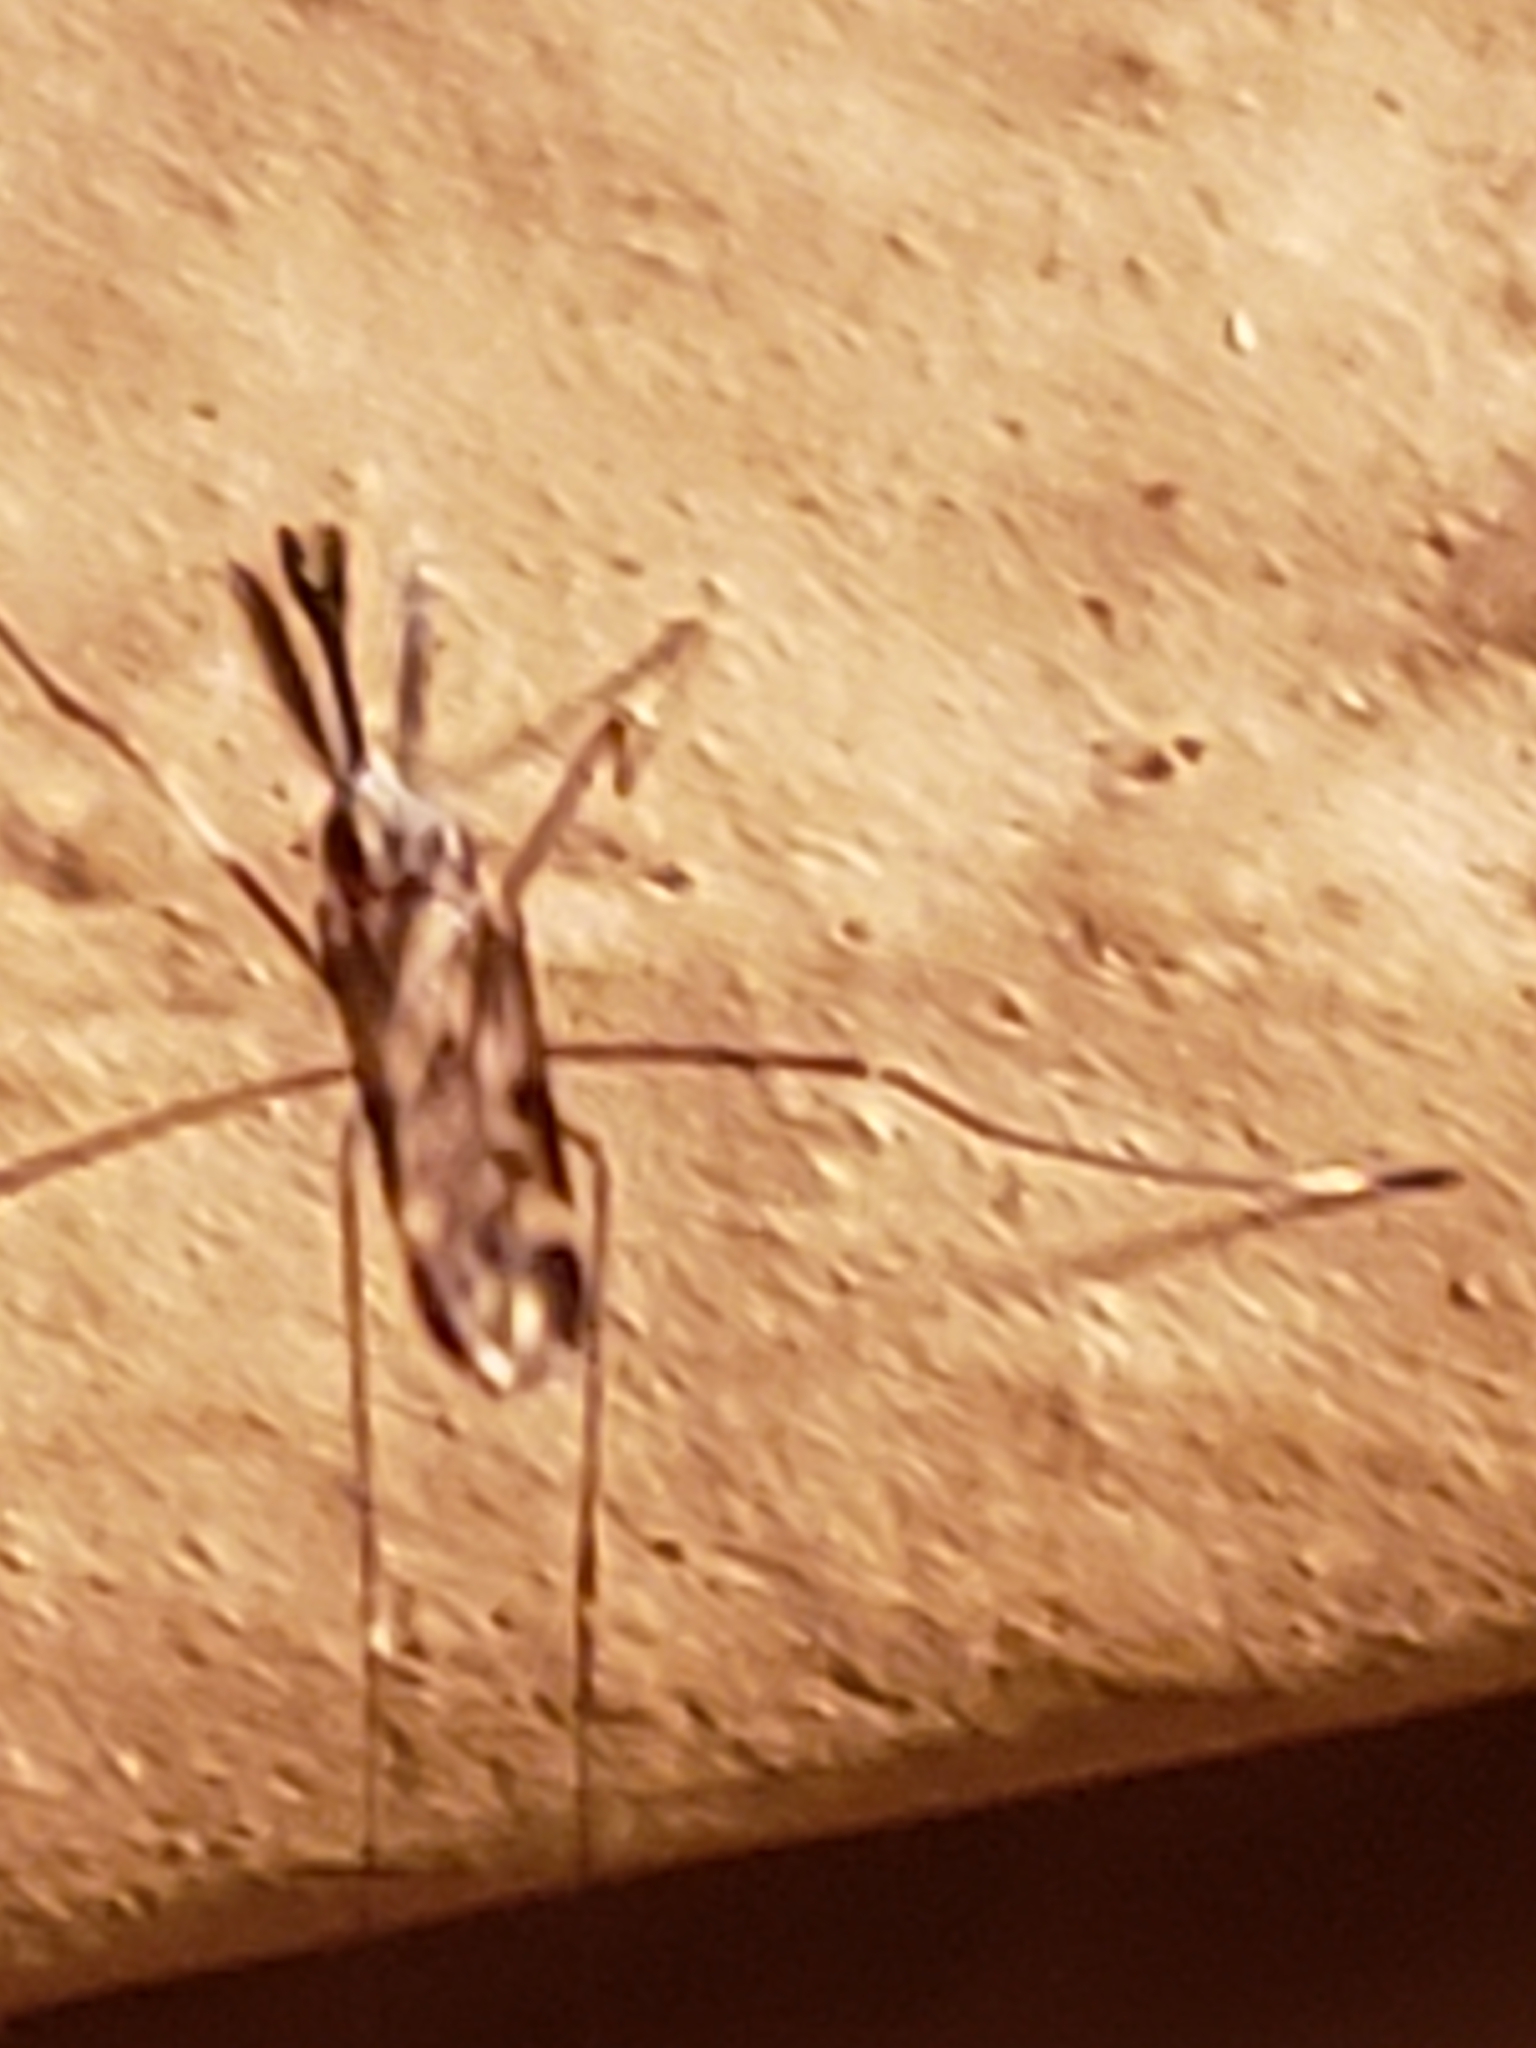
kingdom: Animalia
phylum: Arthropoda
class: Insecta
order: Diptera
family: Culicidae
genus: Anopheles
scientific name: Anopheles punctipennis
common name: Woodland malaria mosquito
